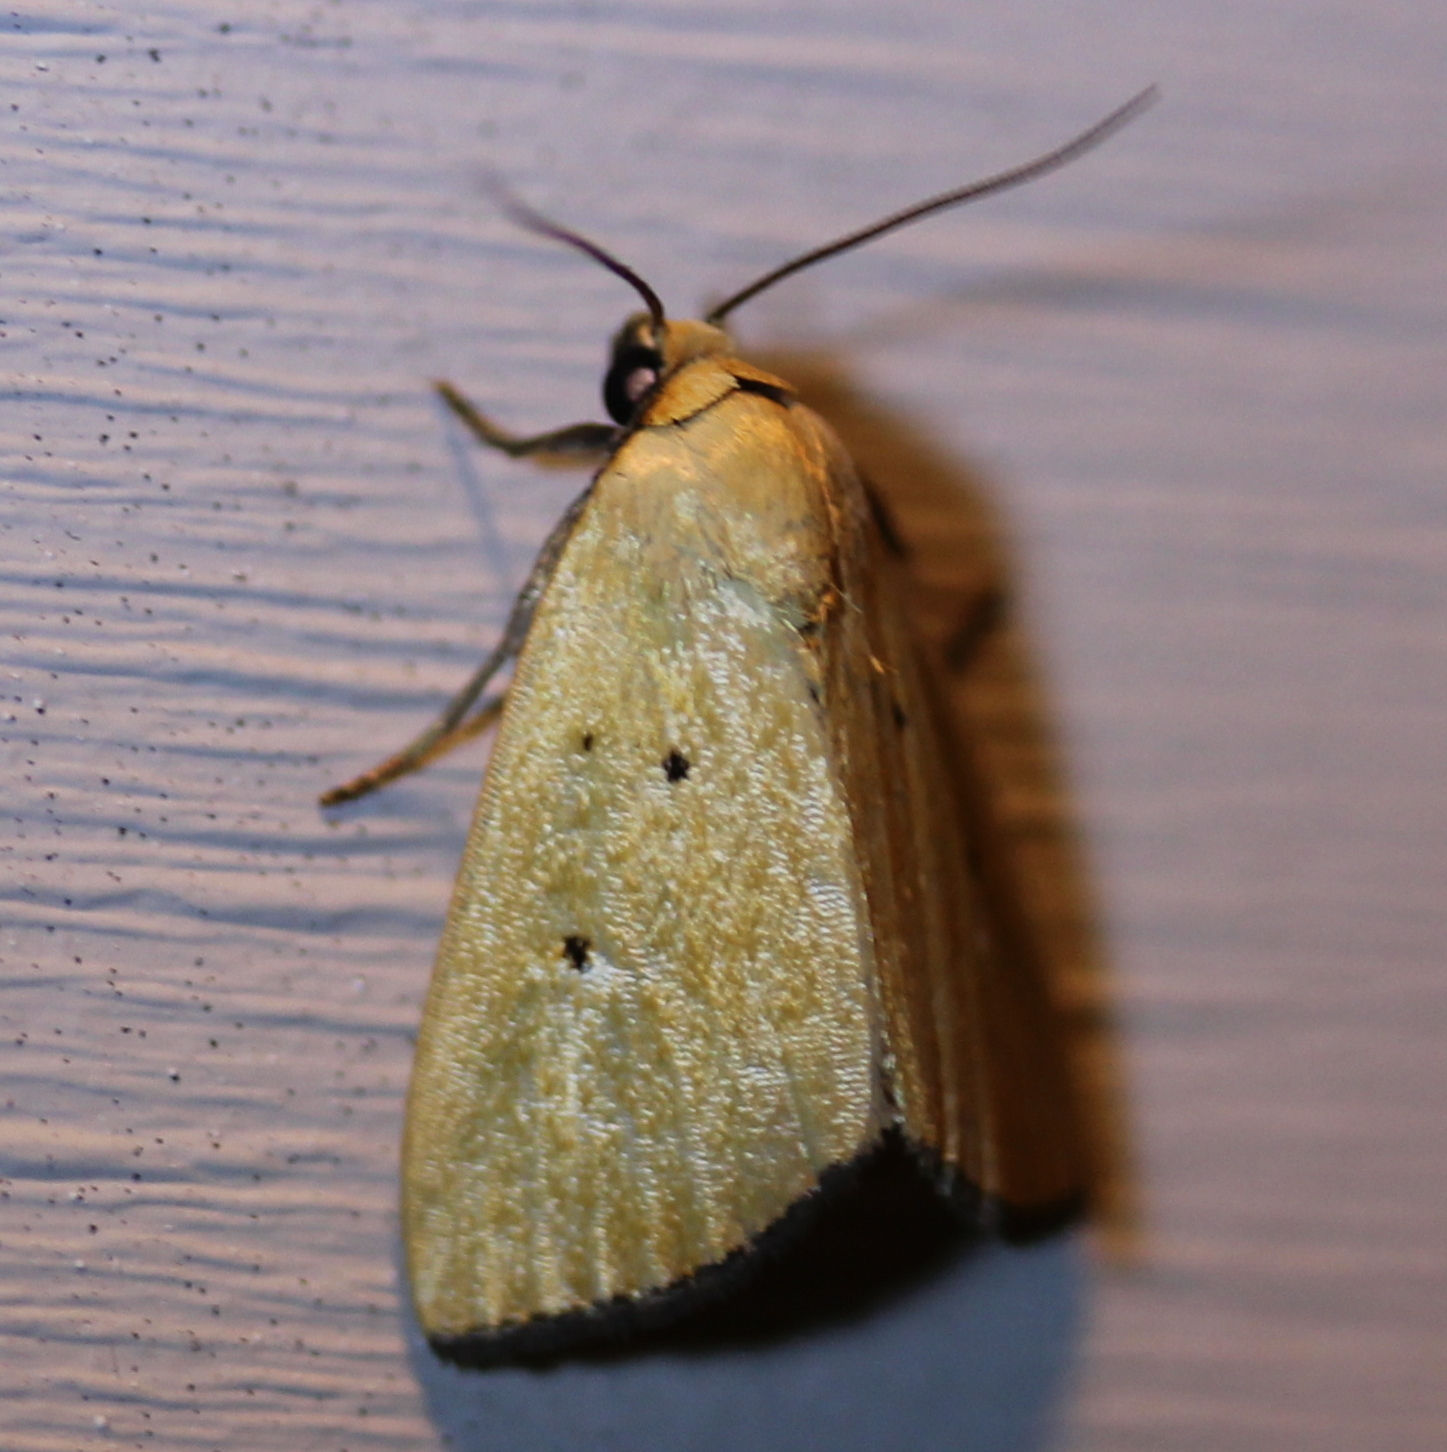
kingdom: Animalia
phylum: Arthropoda
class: Insecta
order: Lepidoptera
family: Noctuidae
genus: Marimatha
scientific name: Marimatha nigrofimbria
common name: Black-bordered lemon moth
